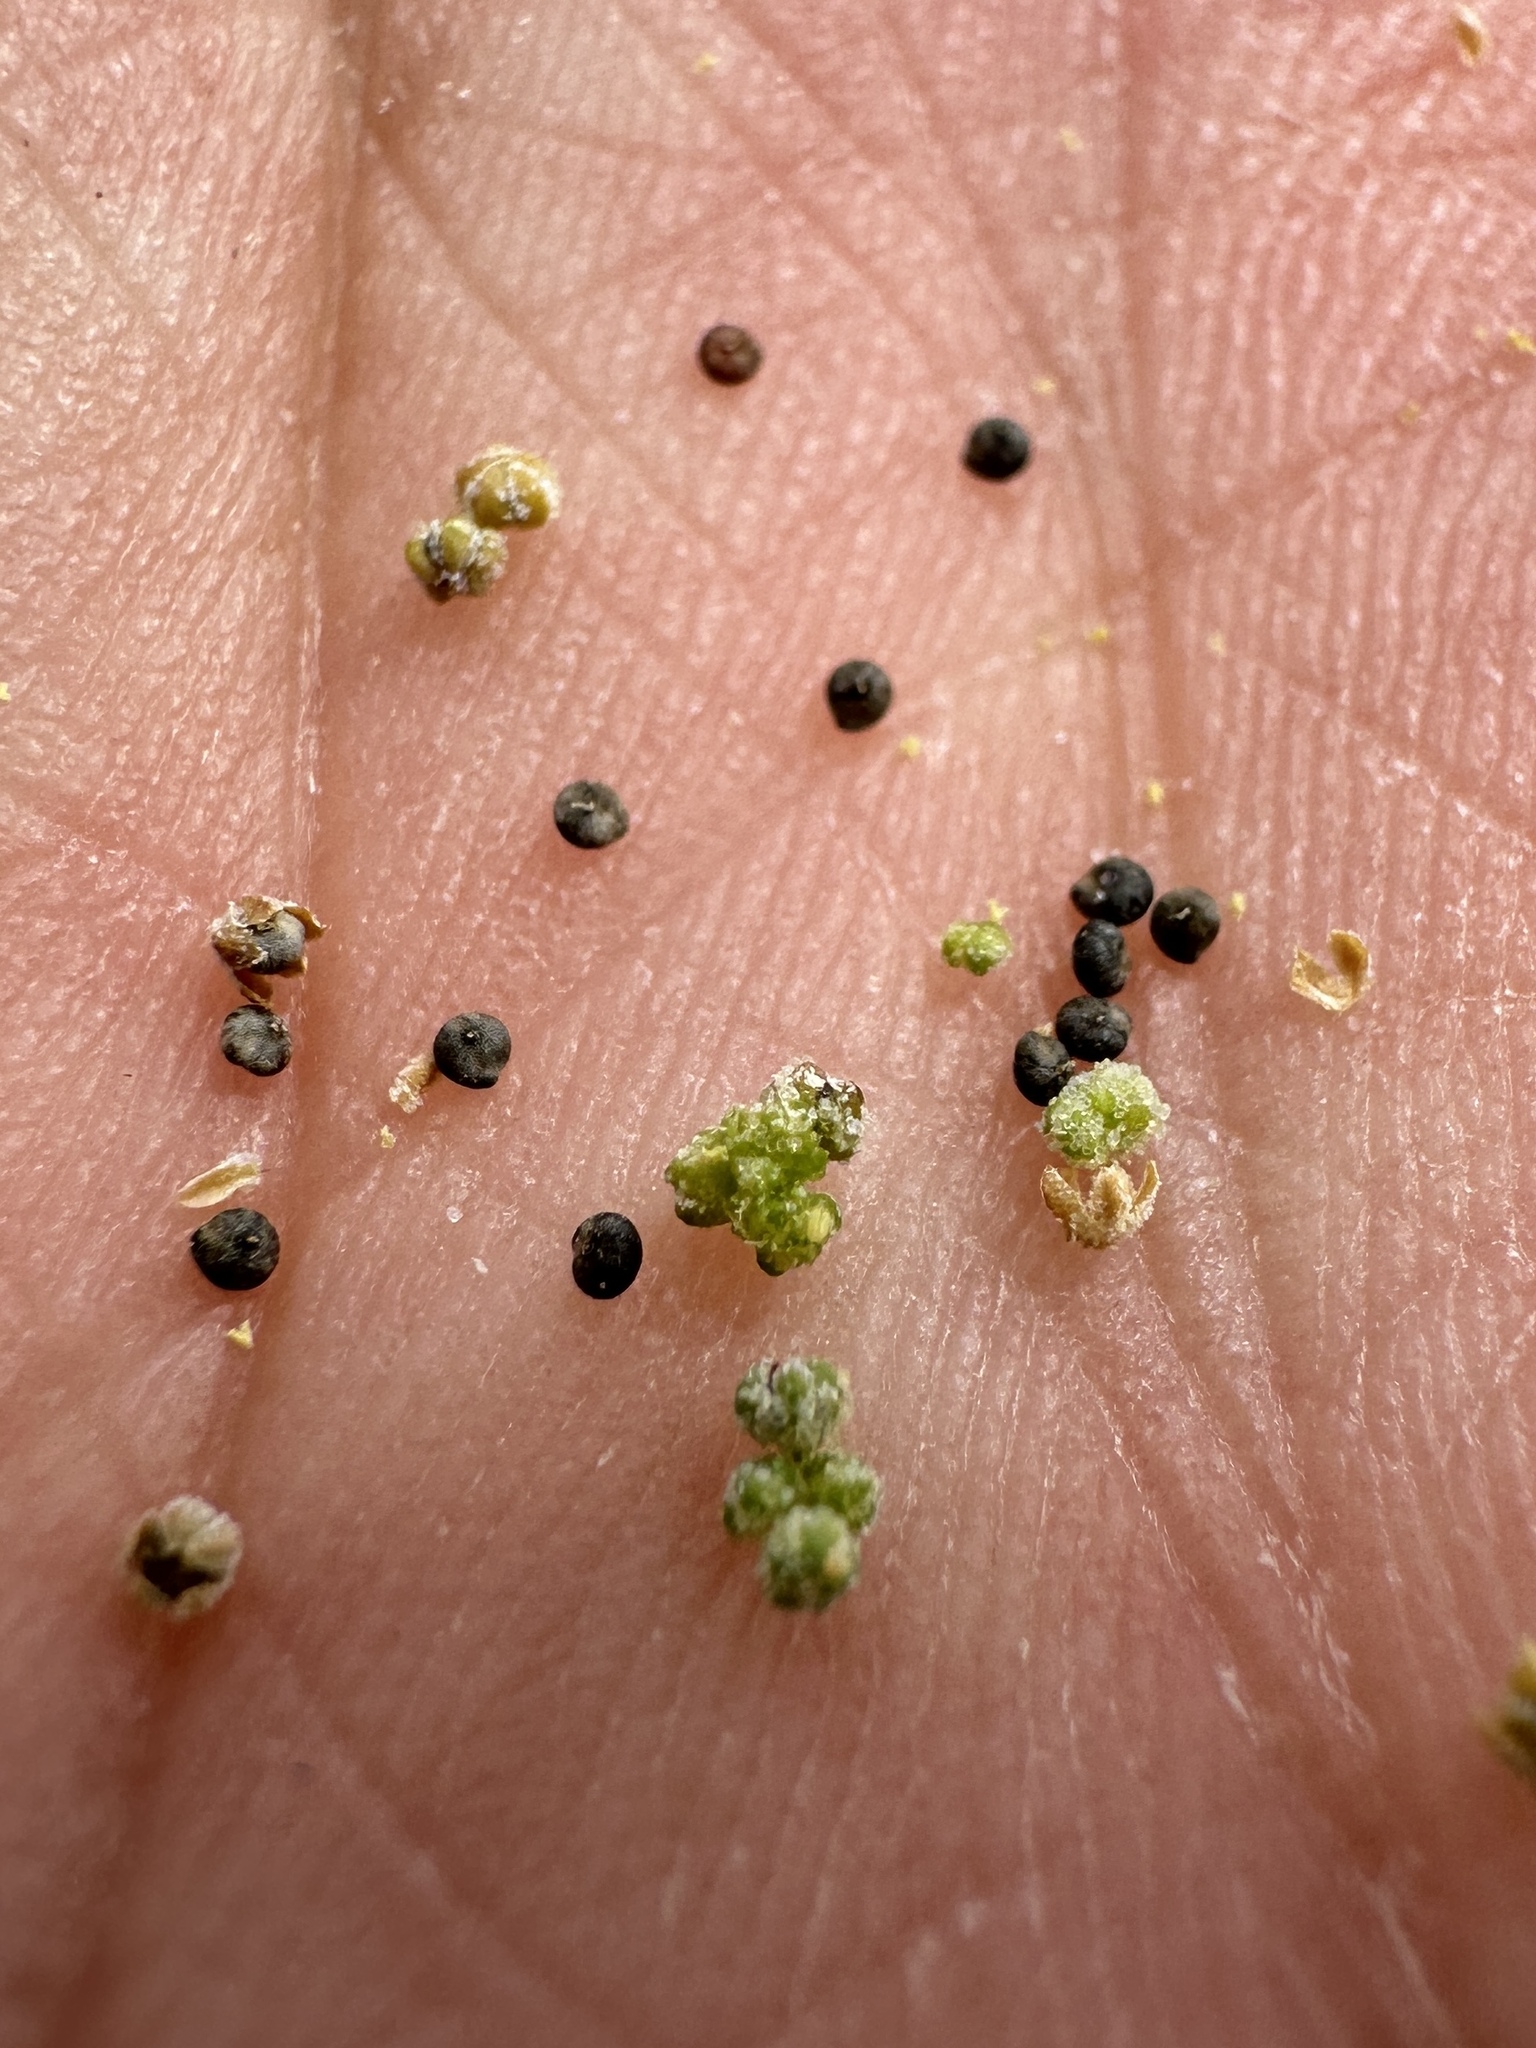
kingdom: Plantae
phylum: Tracheophyta
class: Magnoliopsida
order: Caryophyllales
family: Amaranthaceae
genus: Chenopodium
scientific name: Chenopodium nevadense
